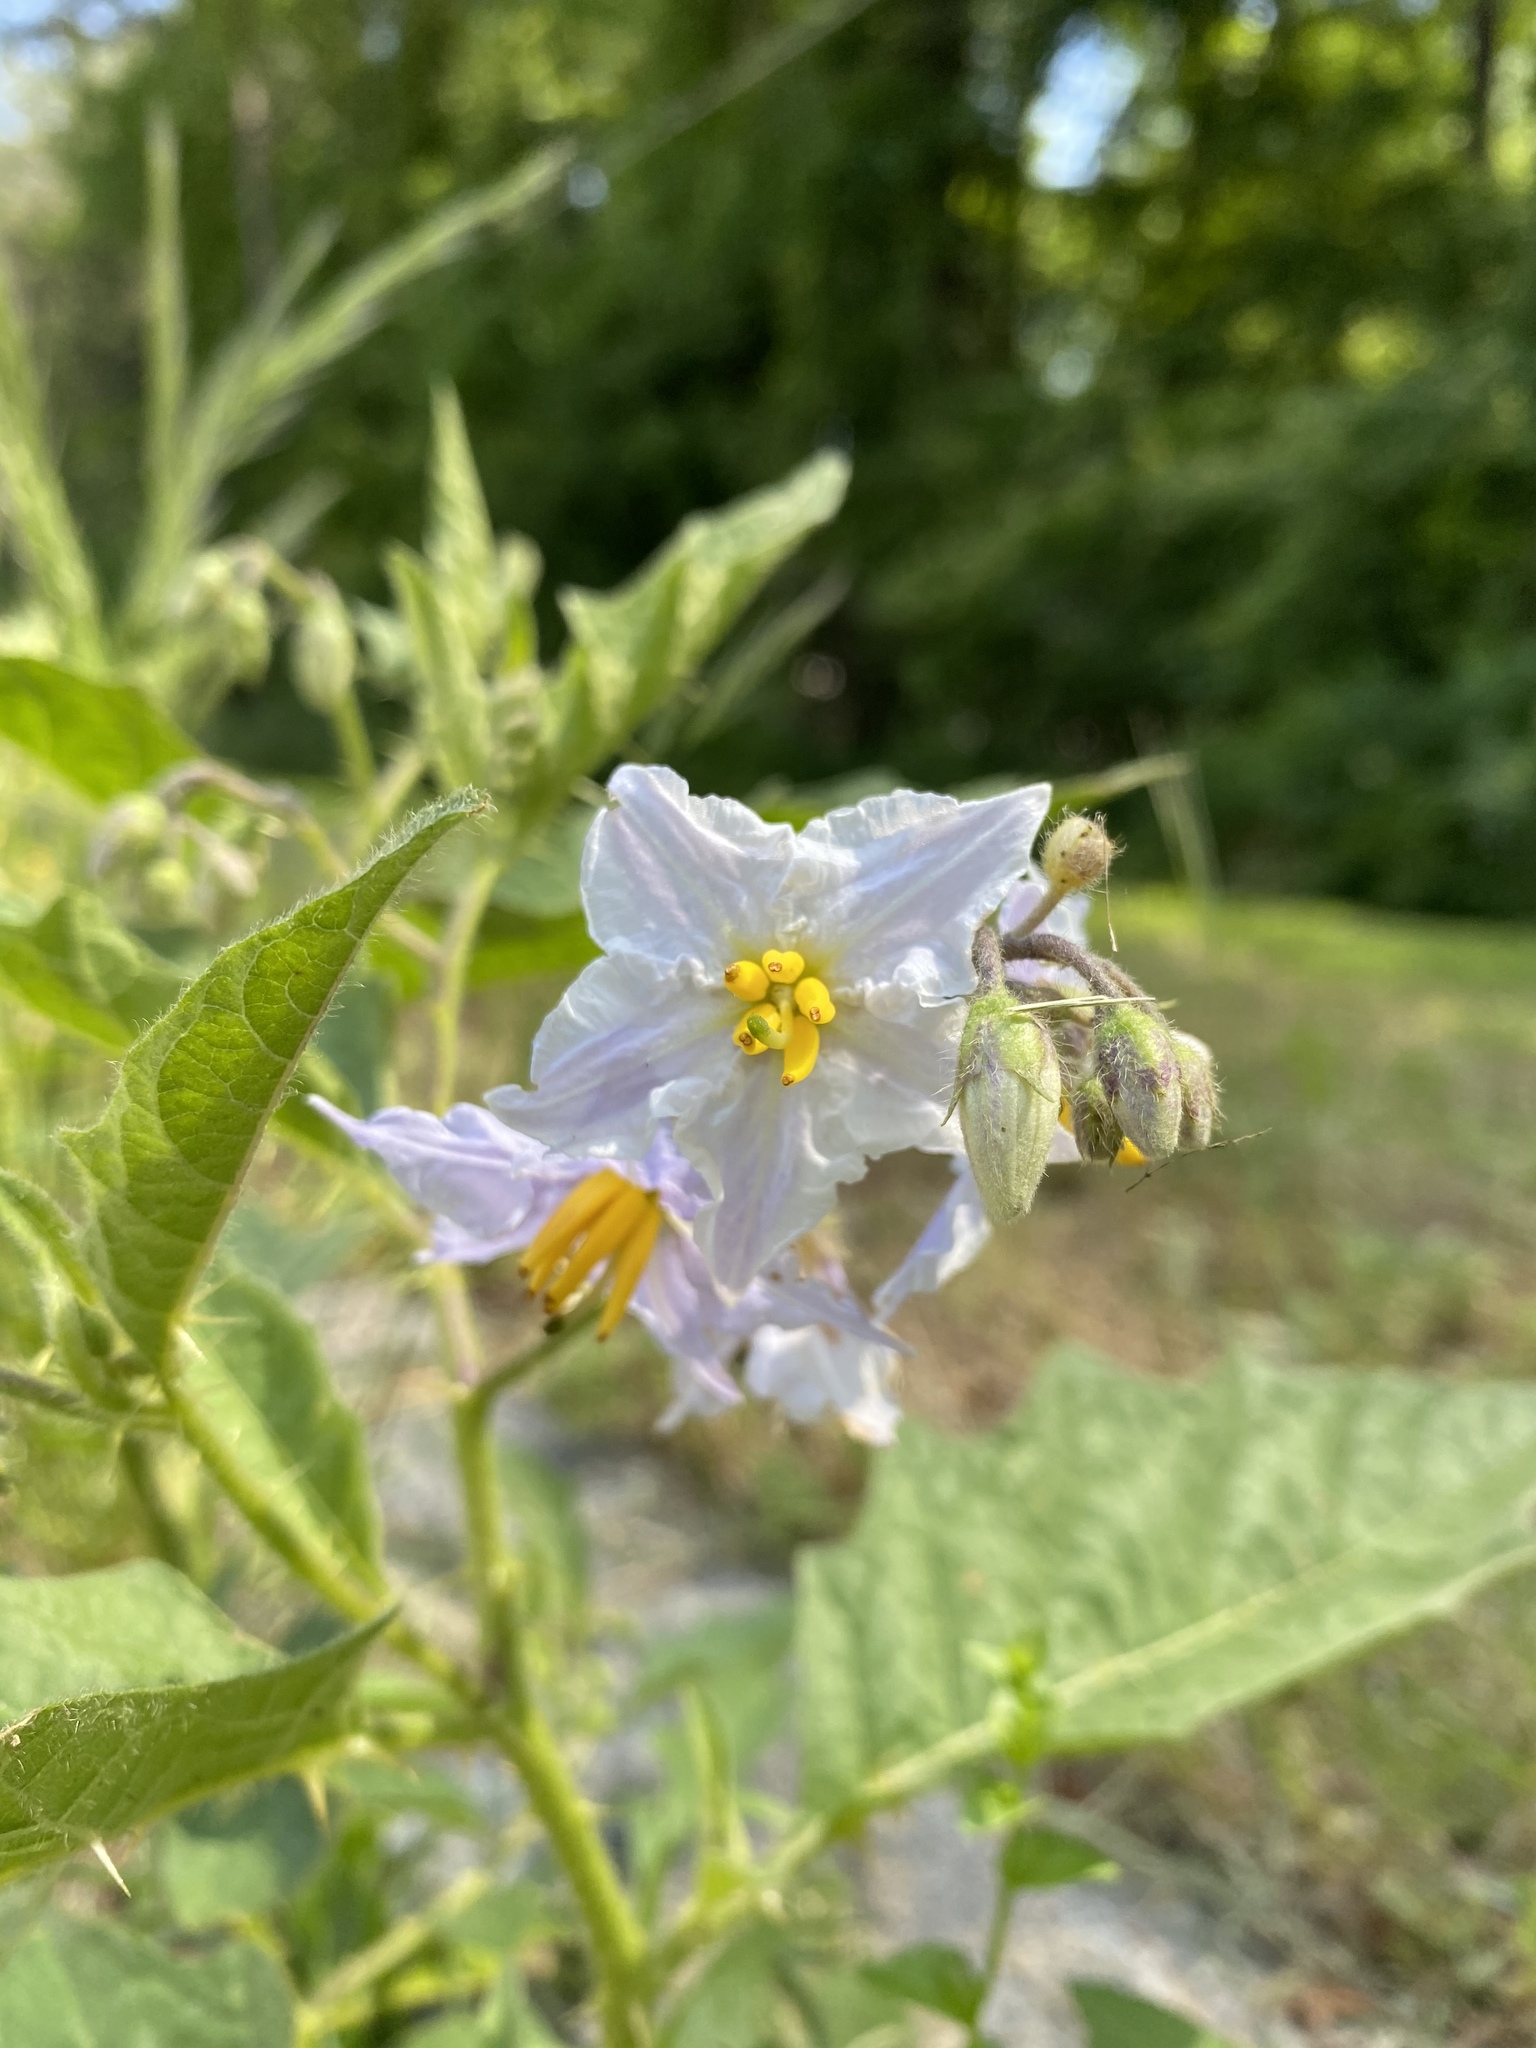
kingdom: Plantae
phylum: Tracheophyta
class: Magnoliopsida
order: Solanales
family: Solanaceae
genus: Solanum
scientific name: Solanum carolinense
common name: Horse-nettle
